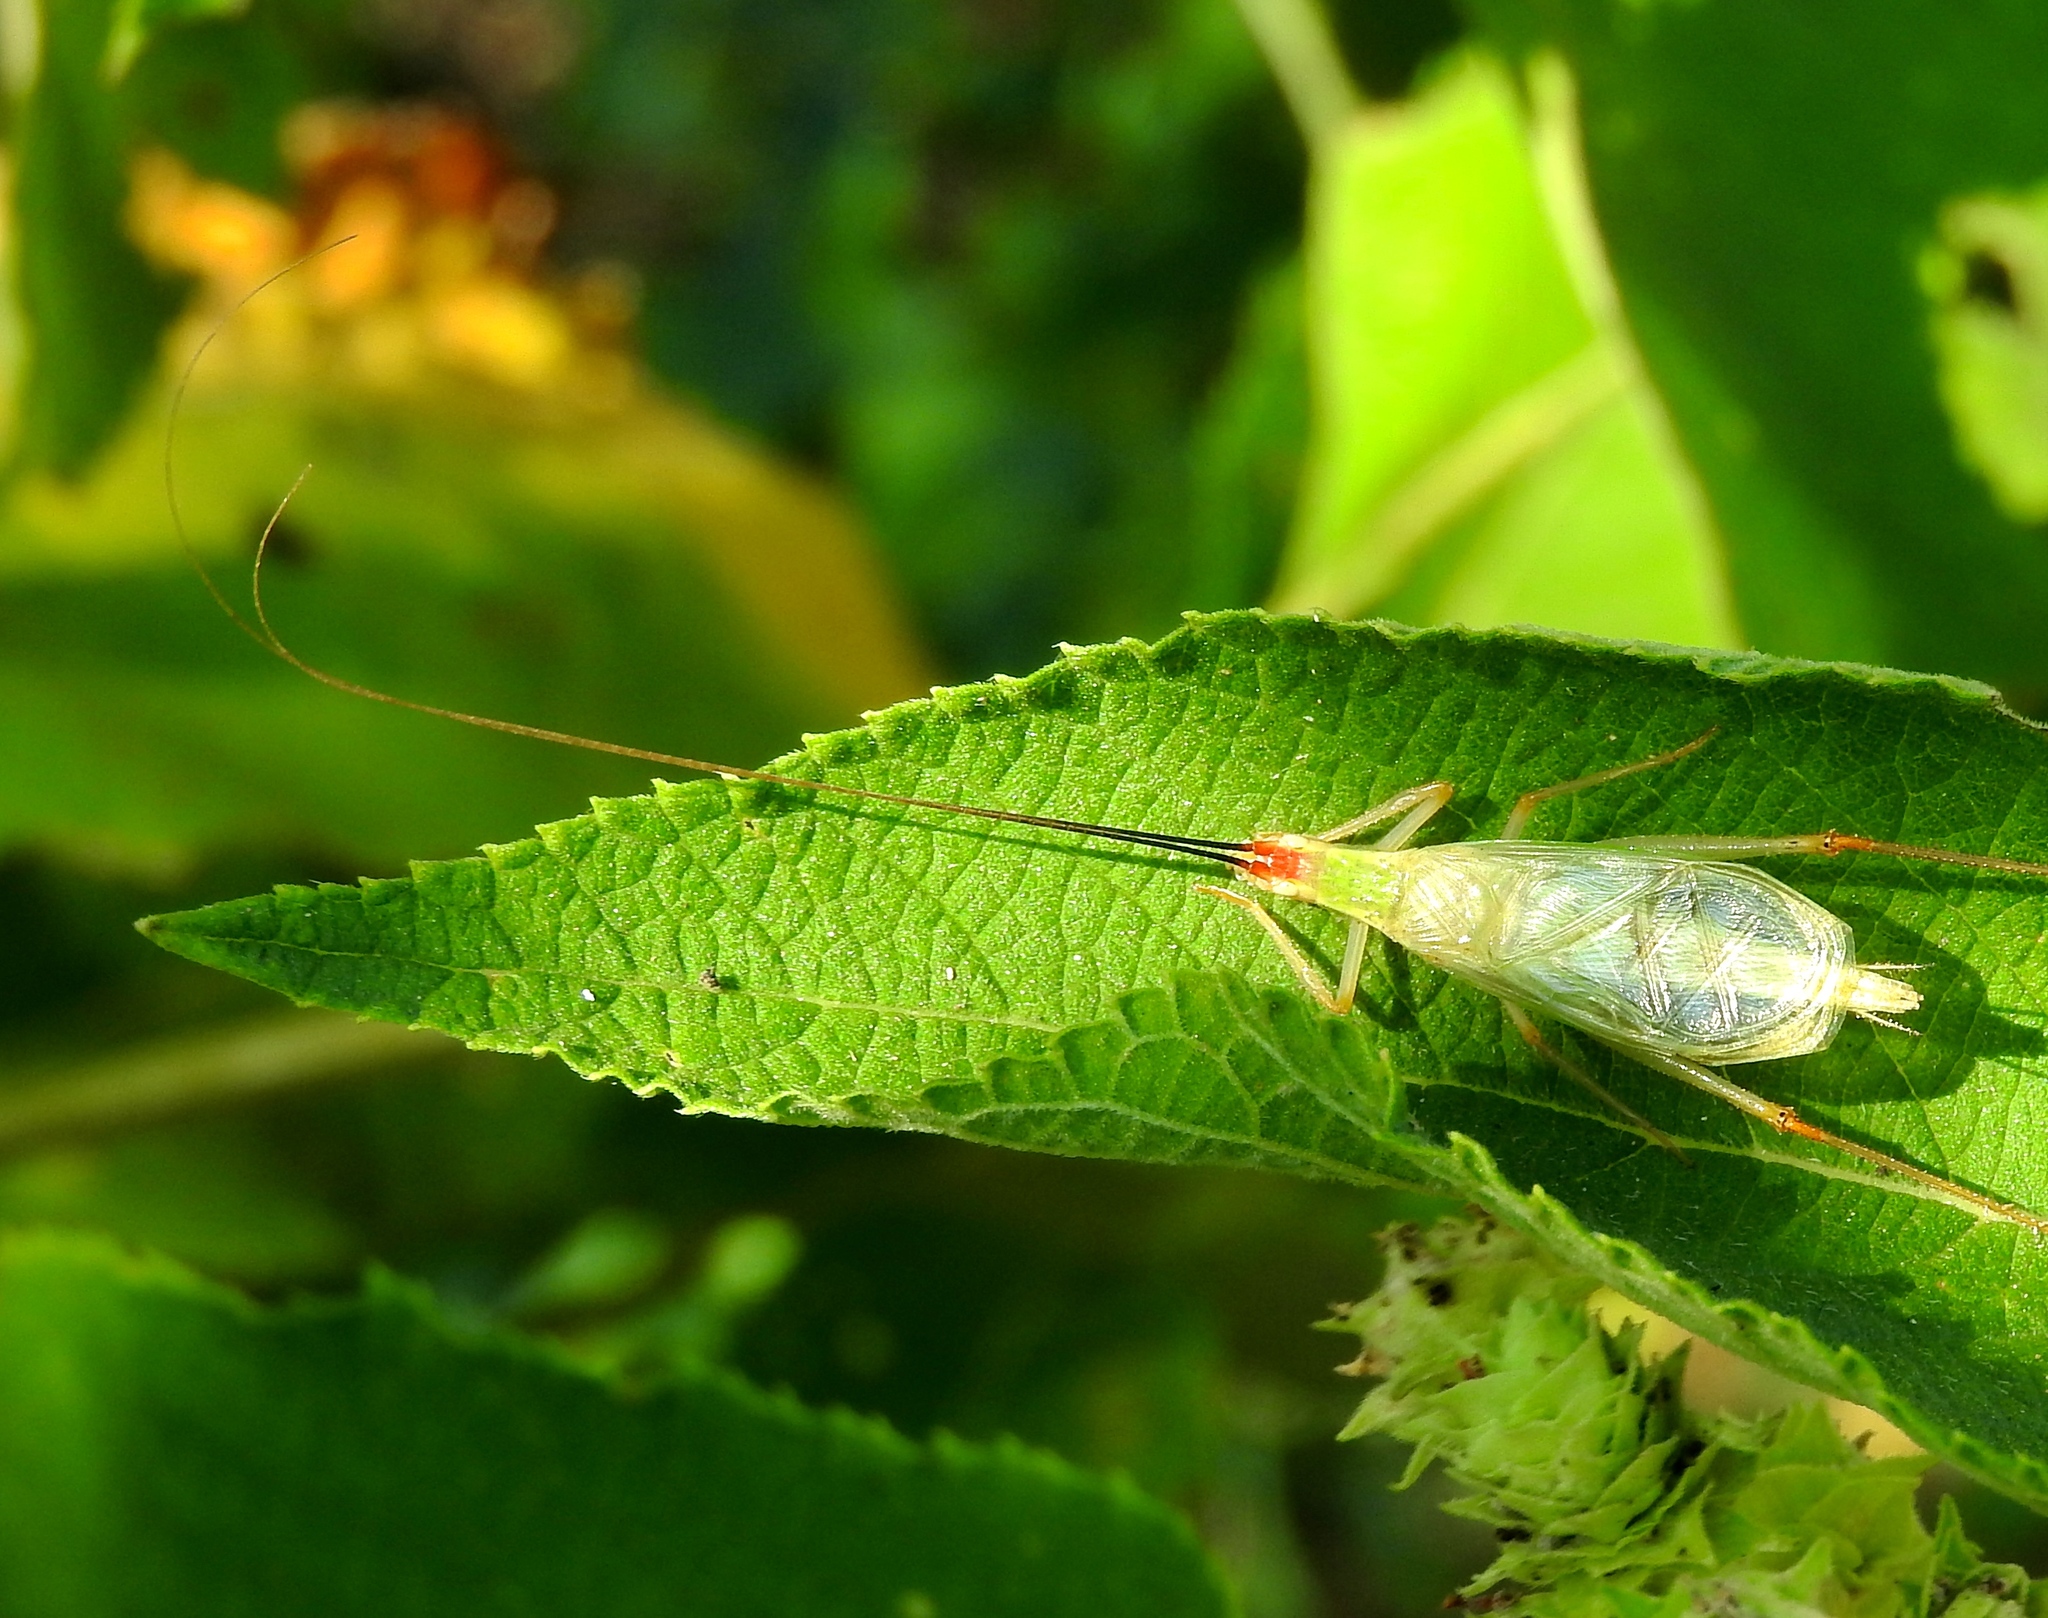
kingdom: Animalia
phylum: Arthropoda
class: Insecta
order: Orthoptera
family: Gryllidae
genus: Oecanthus
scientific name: Oecanthus varicornis
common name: Different-horned tree cricket
